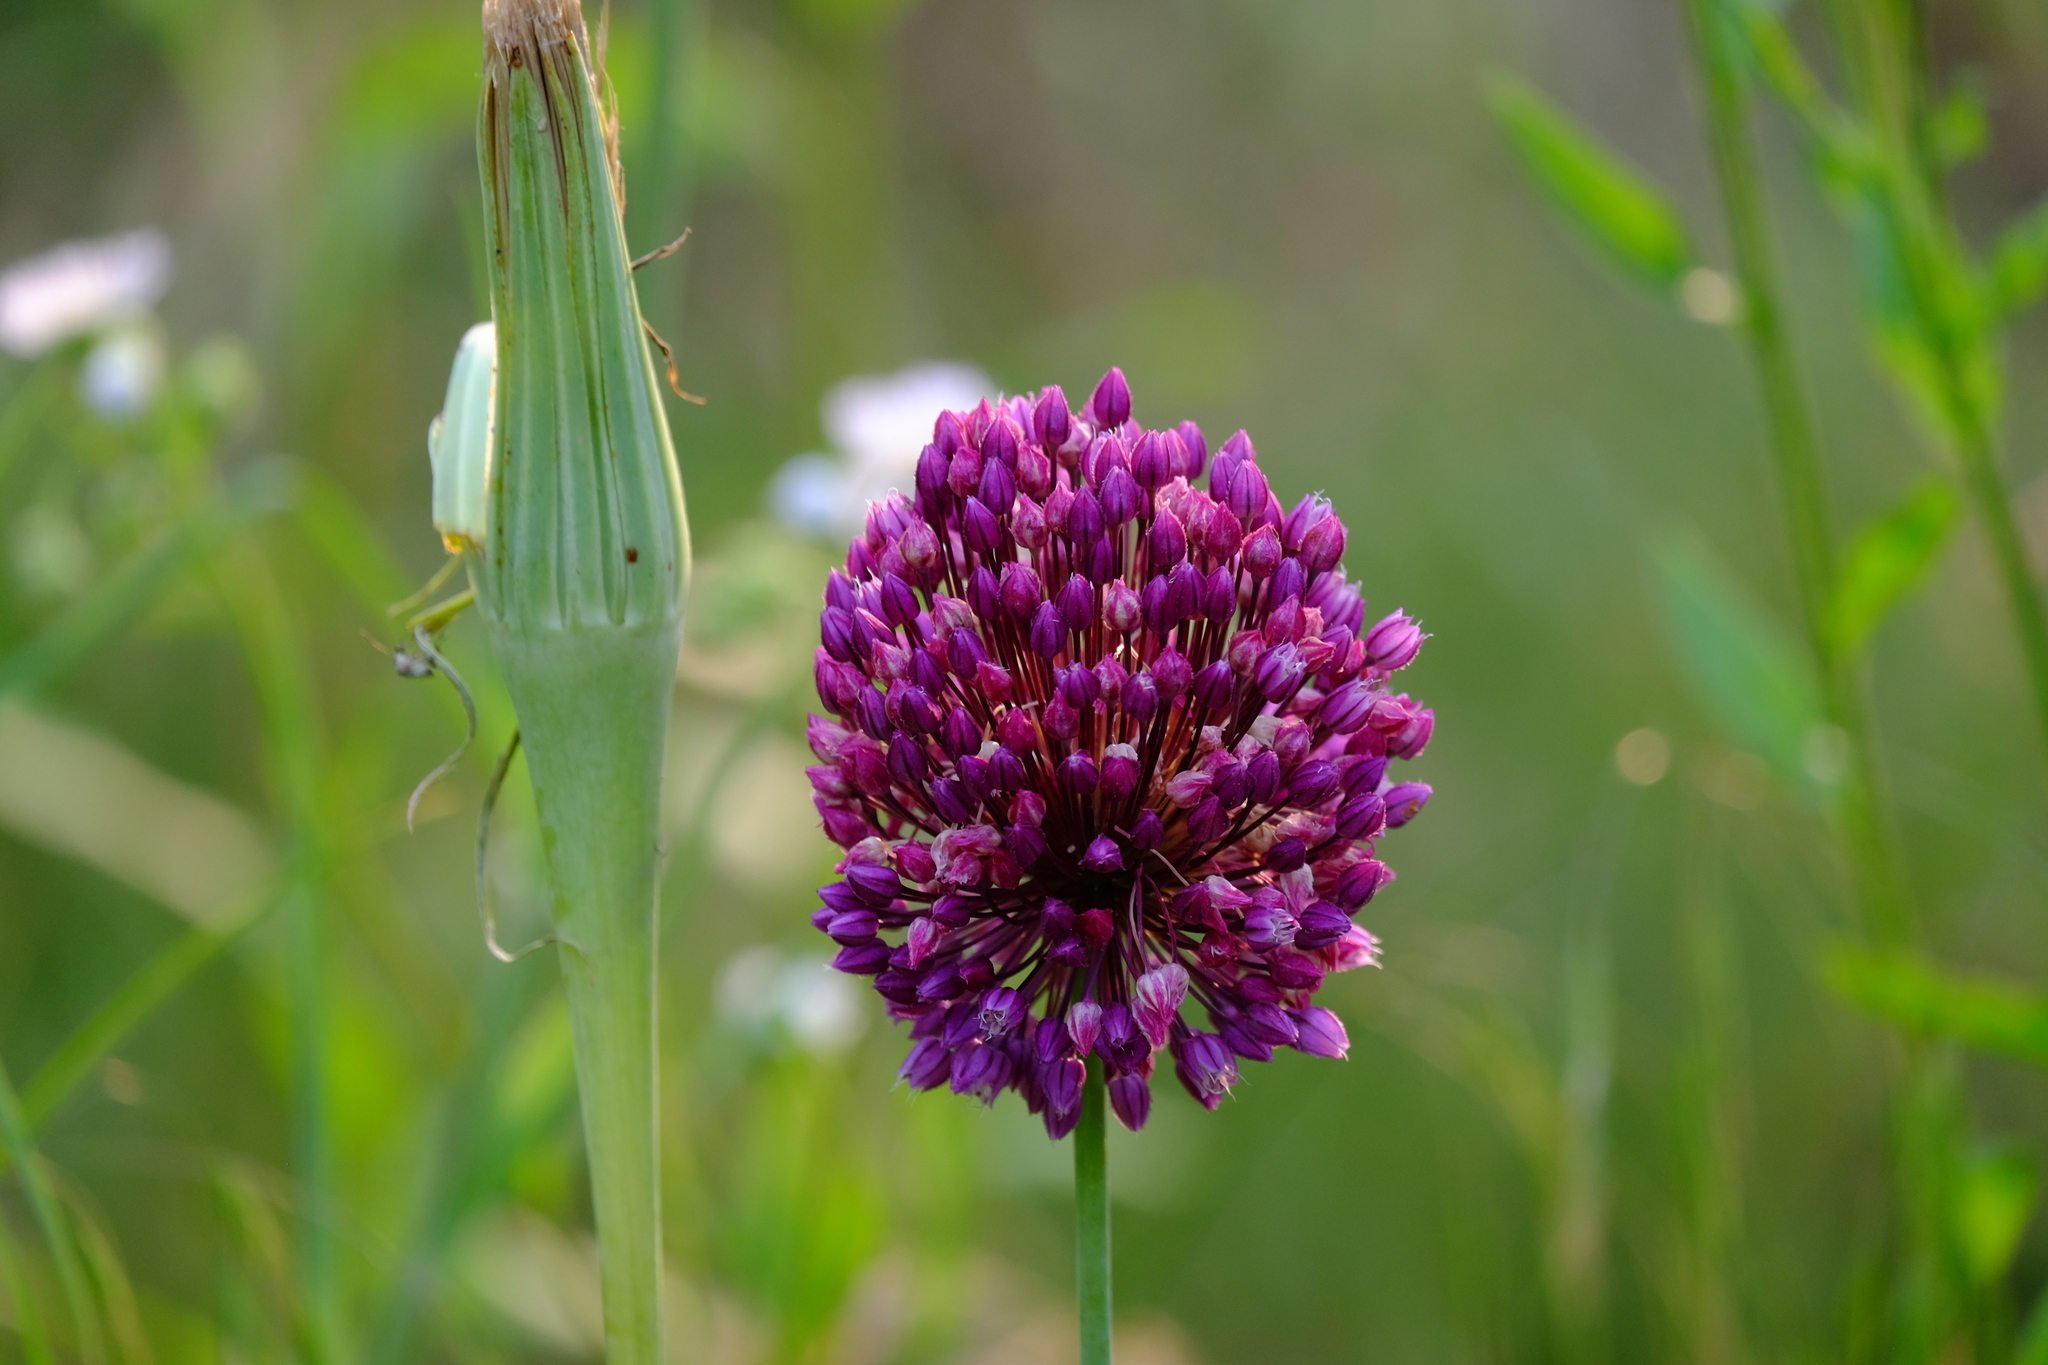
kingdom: Plantae
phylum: Tracheophyta
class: Liliopsida
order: Asparagales
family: Amaryllidaceae
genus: Allium
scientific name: Allium rotundum
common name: Sand leek
